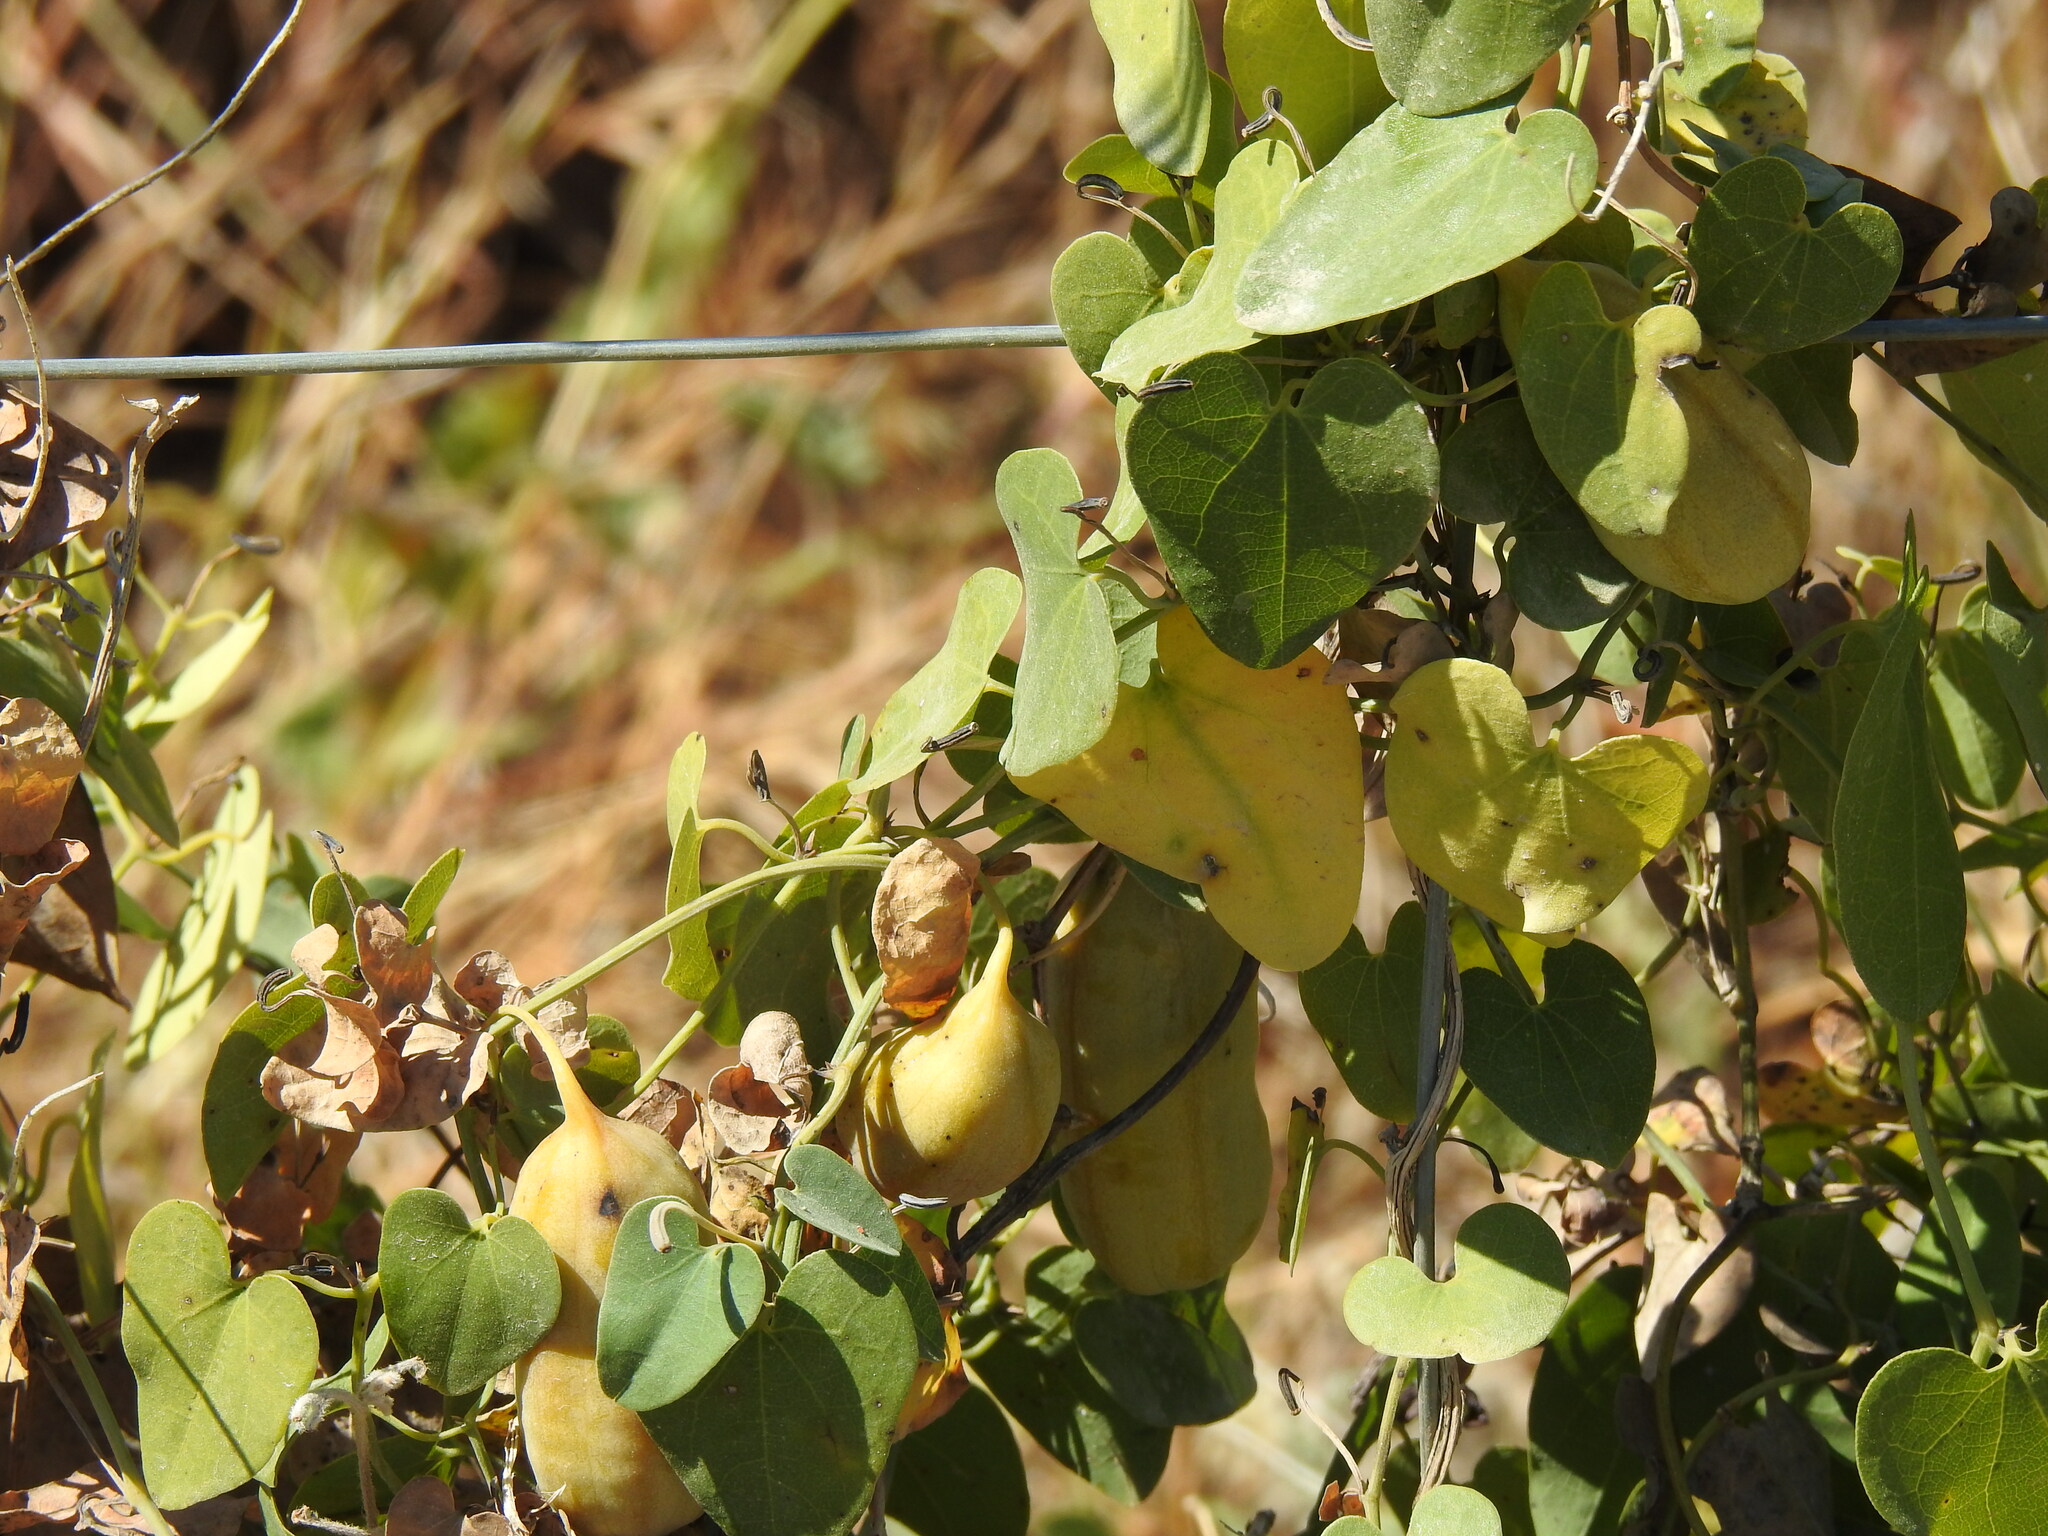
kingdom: Plantae
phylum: Tracheophyta
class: Magnoliopsida
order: Piperales
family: Aristolochiaceae
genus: Aristolochia
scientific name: Aristolochia baetica
